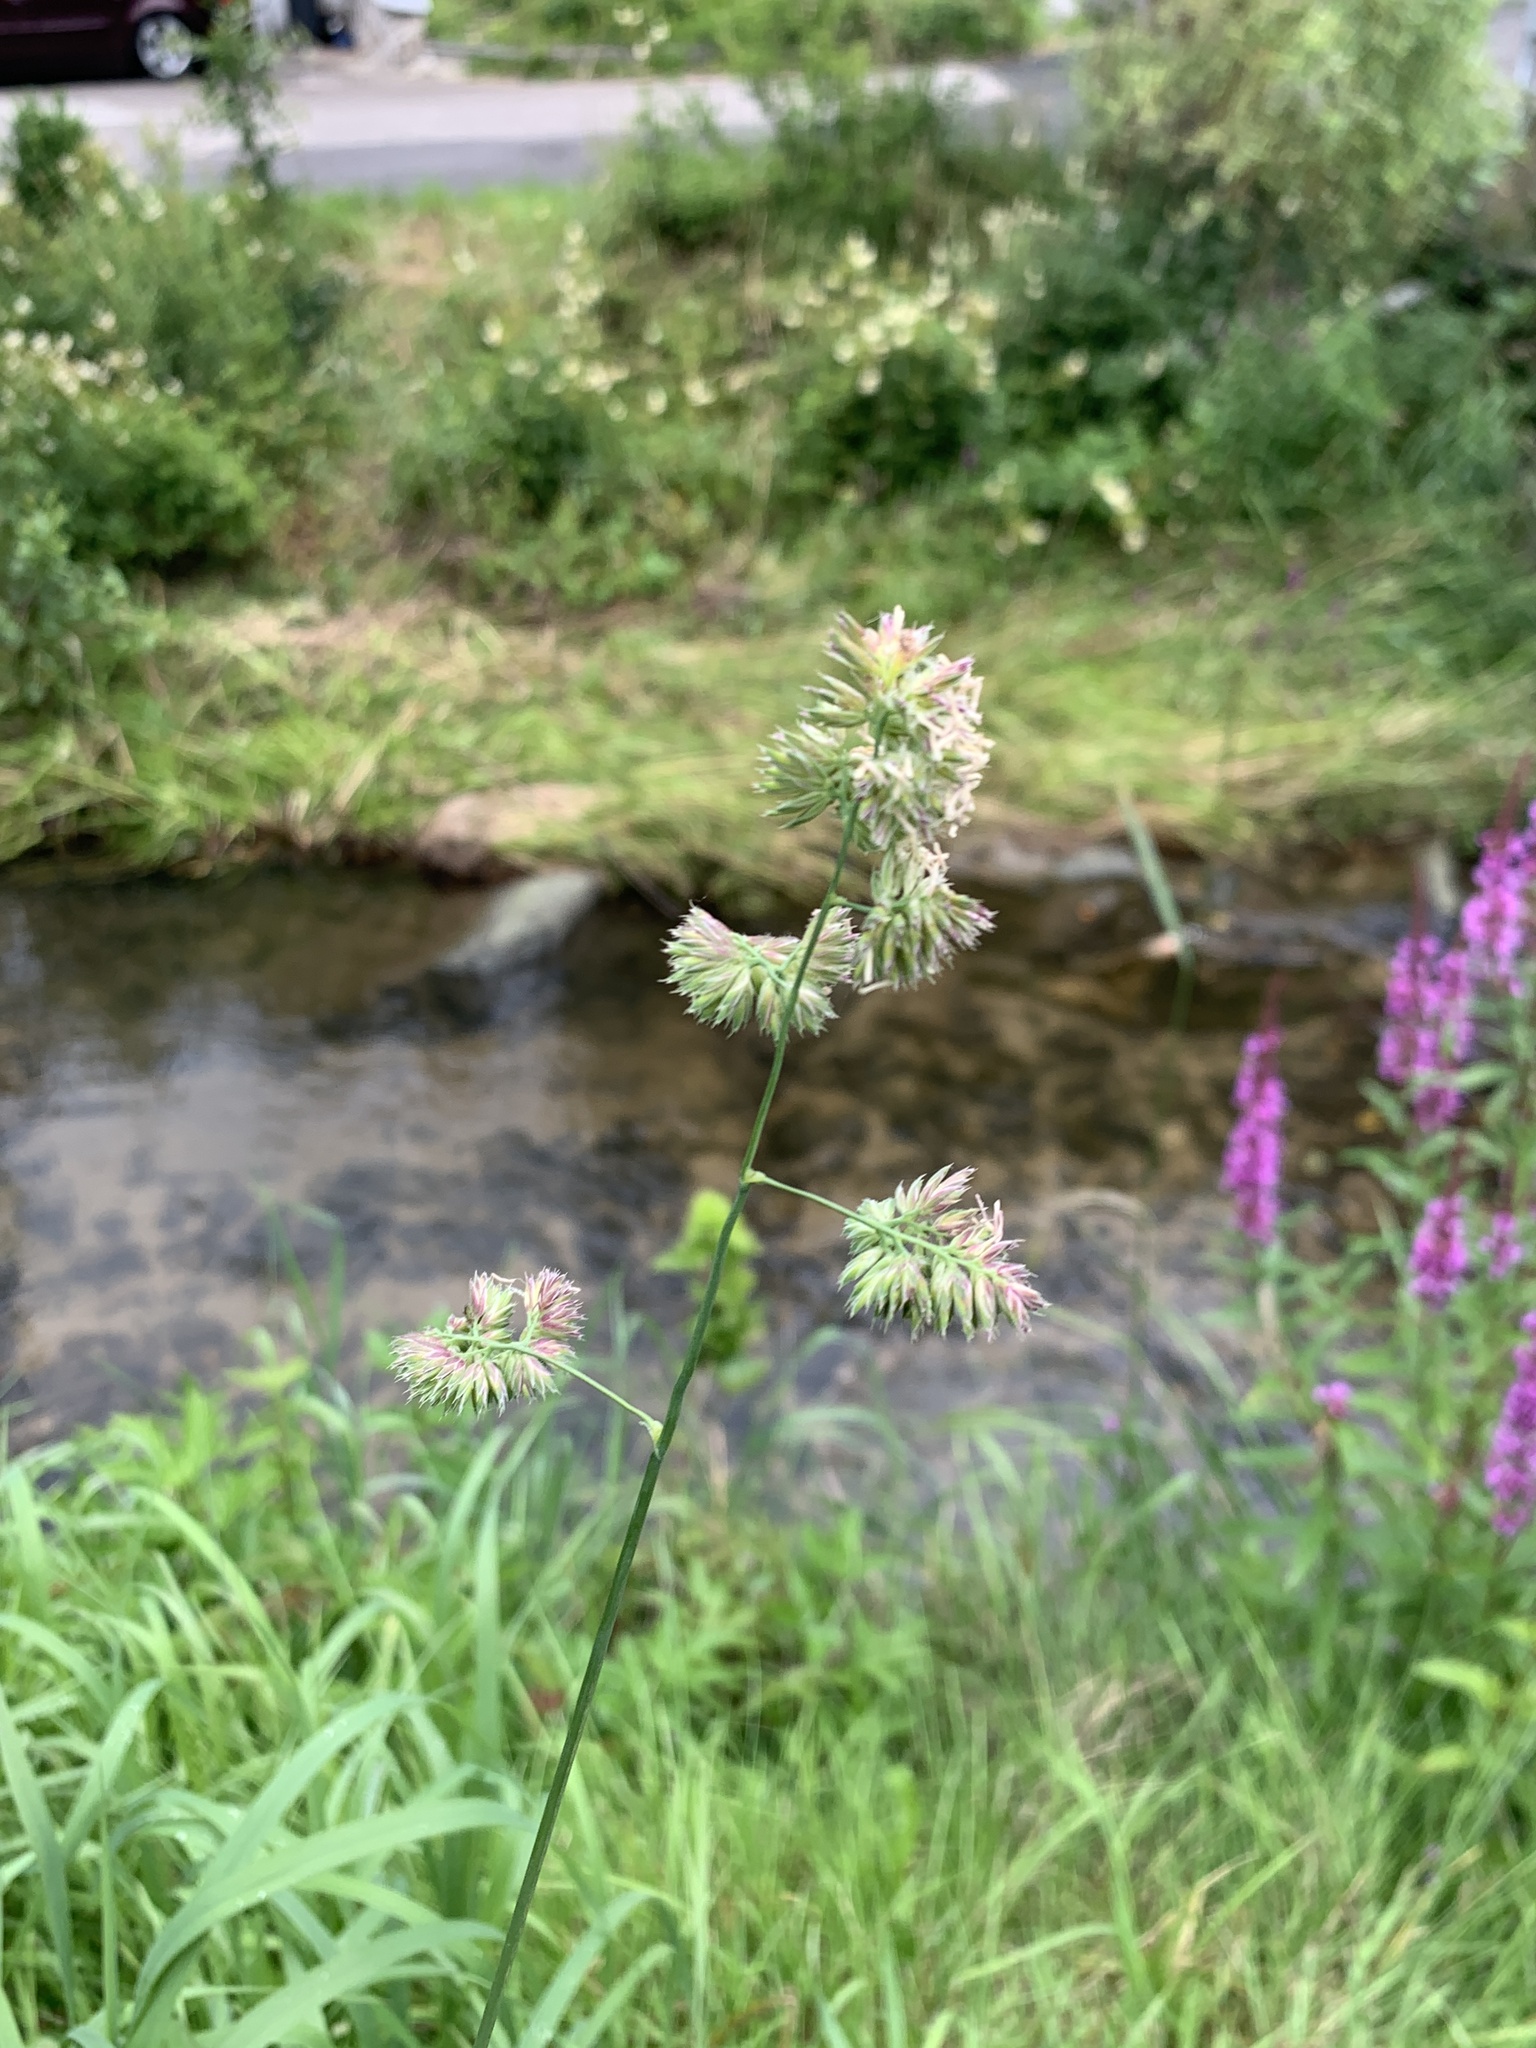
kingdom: Plantae
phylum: Tracheophyta
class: Liliopsida
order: Poales
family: Poaceae
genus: Dactylis
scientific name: Dactylis glomerata
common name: Orchardgrass
